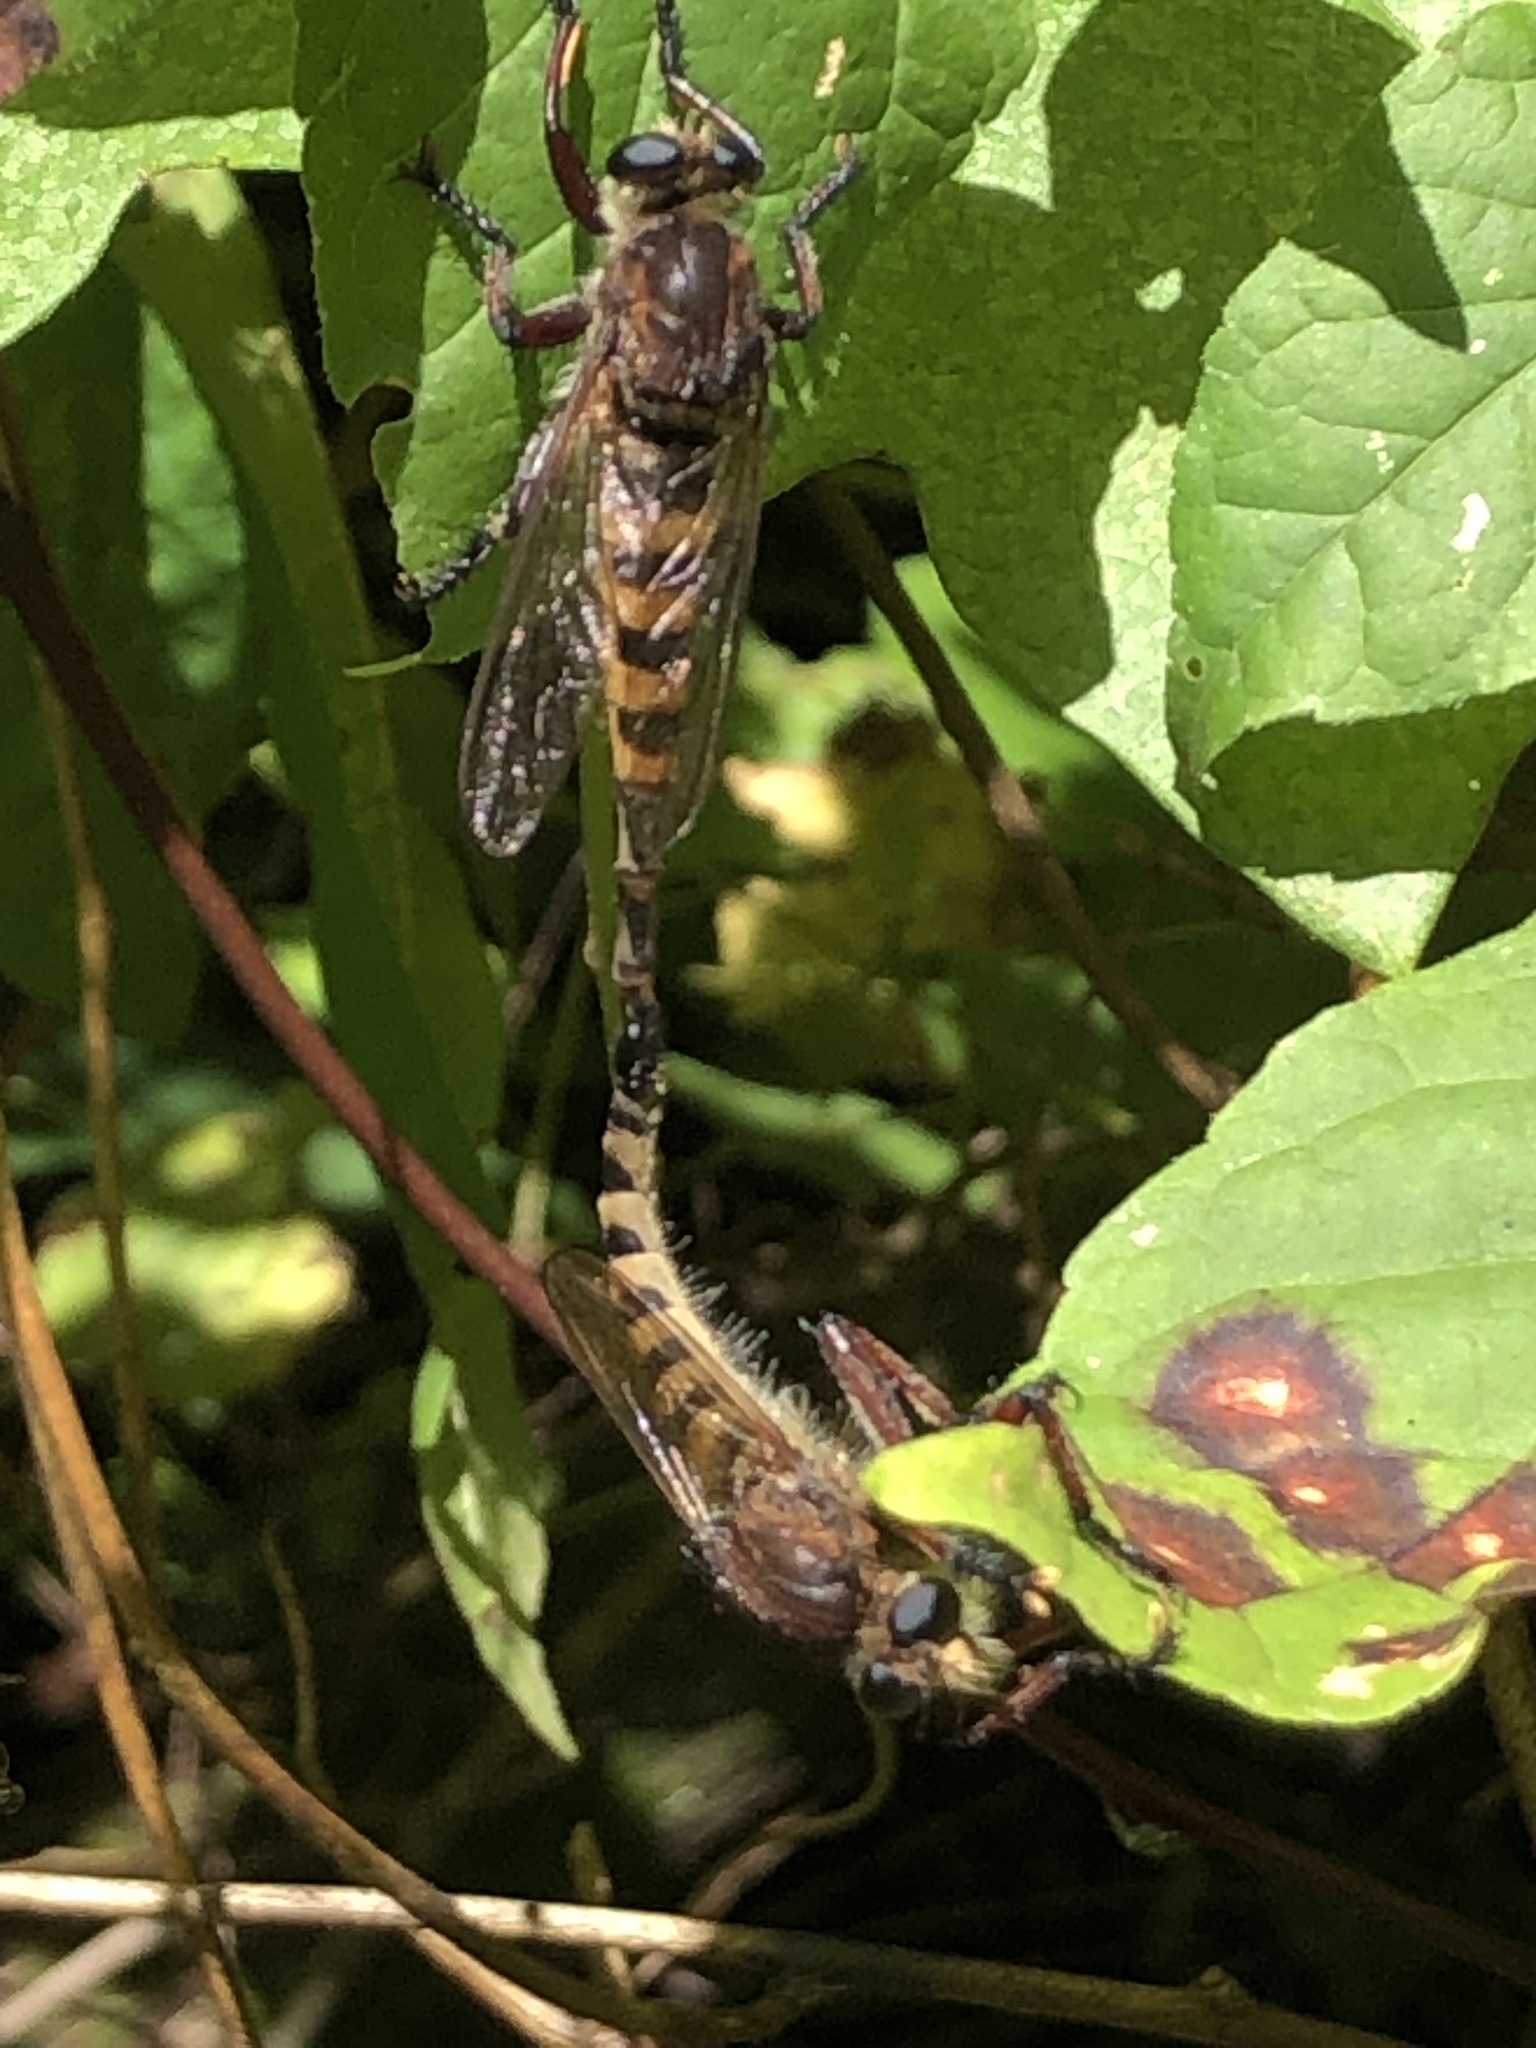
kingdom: Animalia
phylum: Arthropoda
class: Insecta
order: Diptera
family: Asilidae
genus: Promachus
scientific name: Promachus hinei
